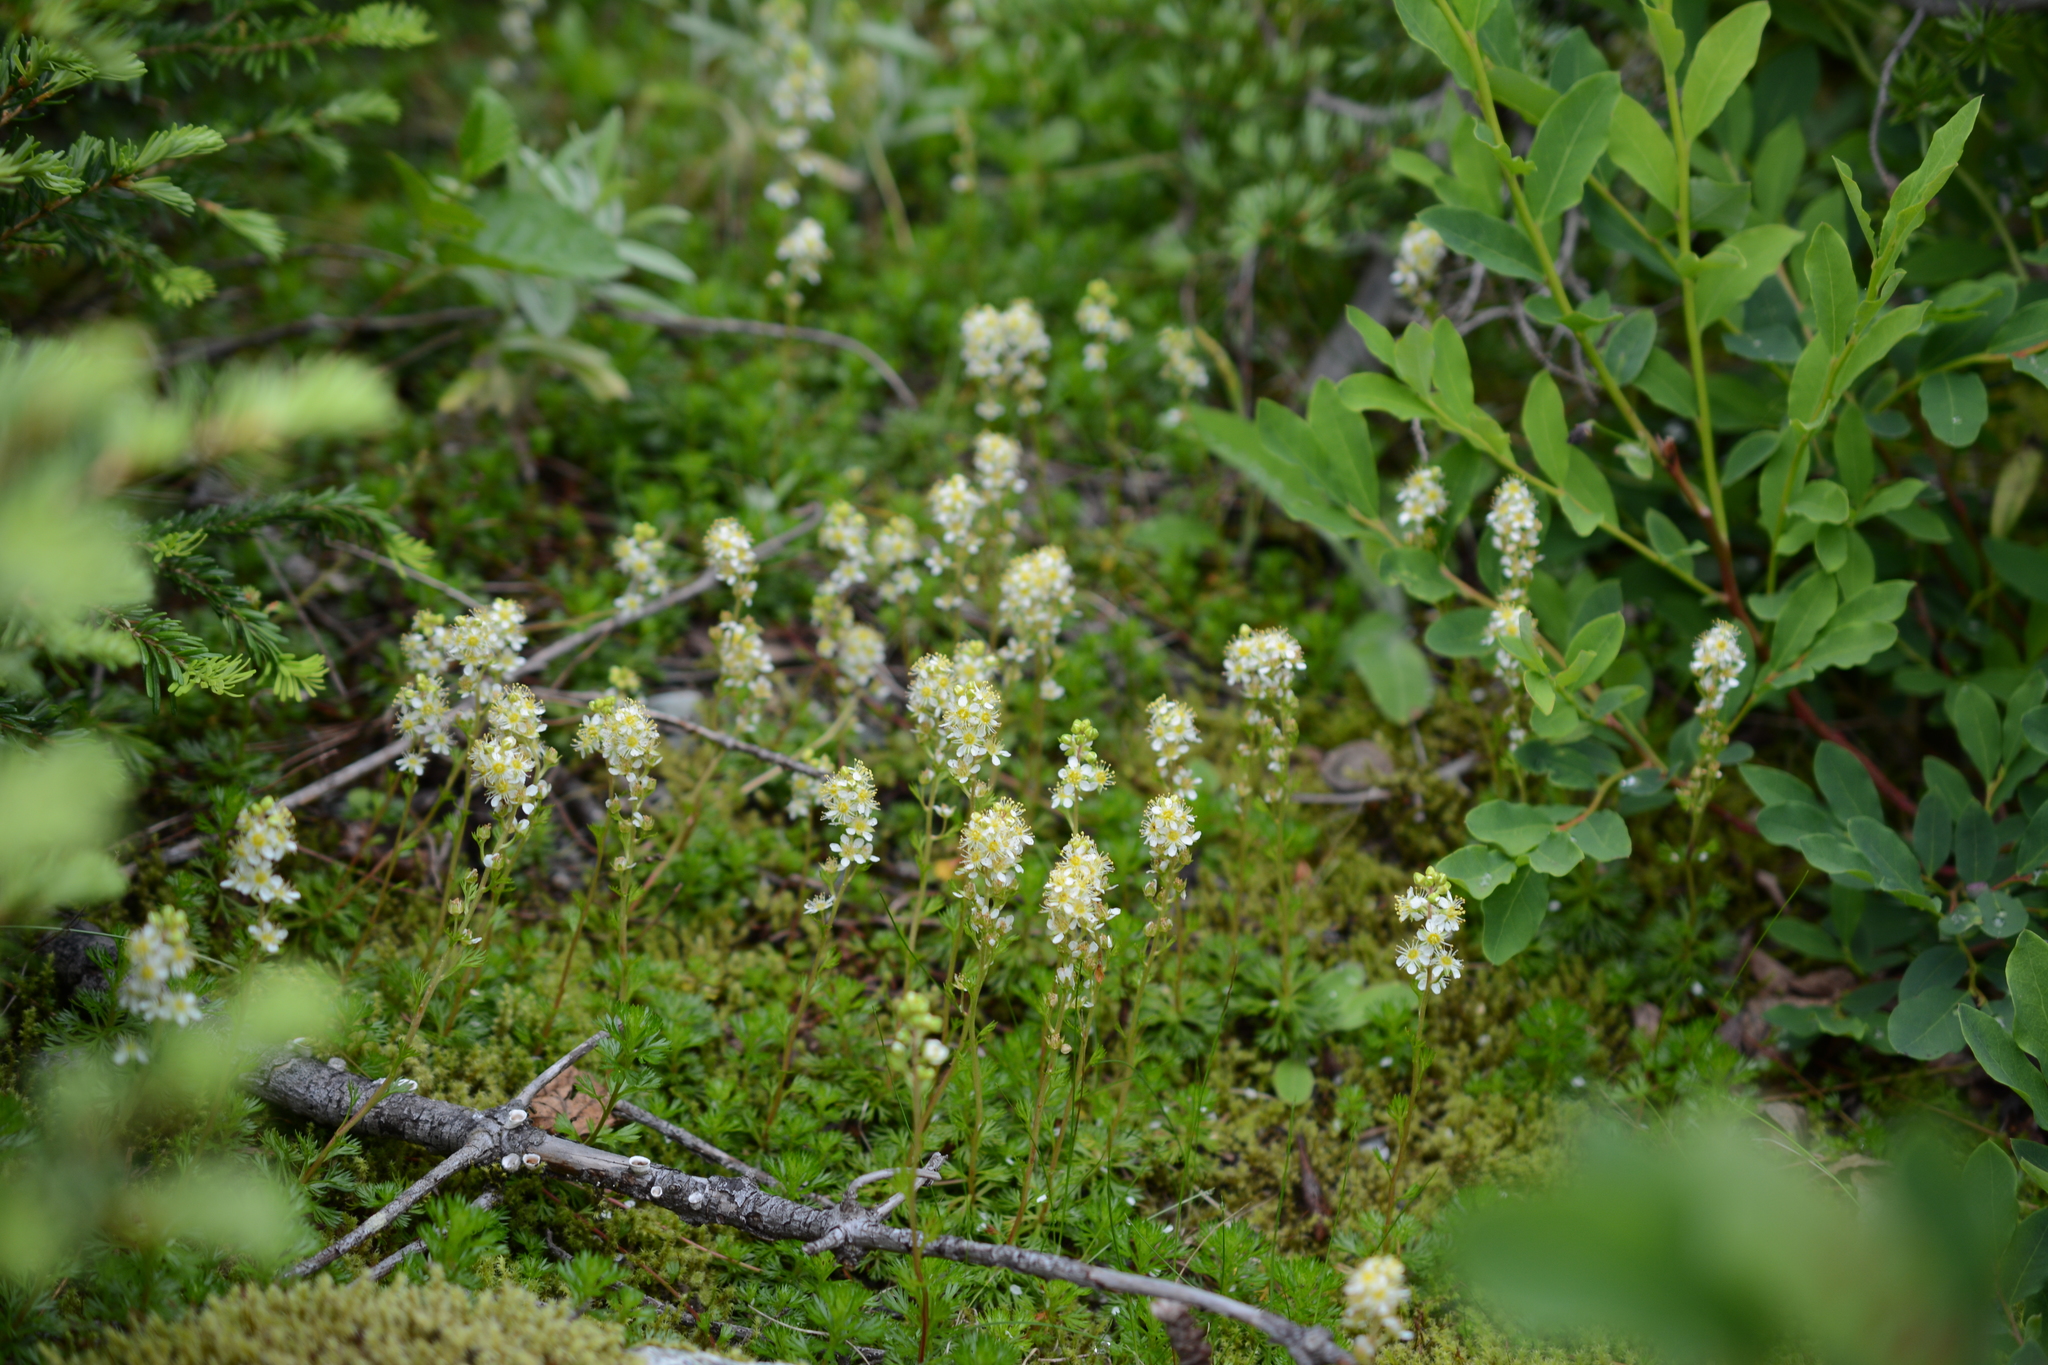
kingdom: Plantae
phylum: Tracheophyta
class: Magnoliopsida
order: Rosales
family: Rosaceae
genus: Luetkea
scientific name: Luetkea pectinata
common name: Partridgefoot
